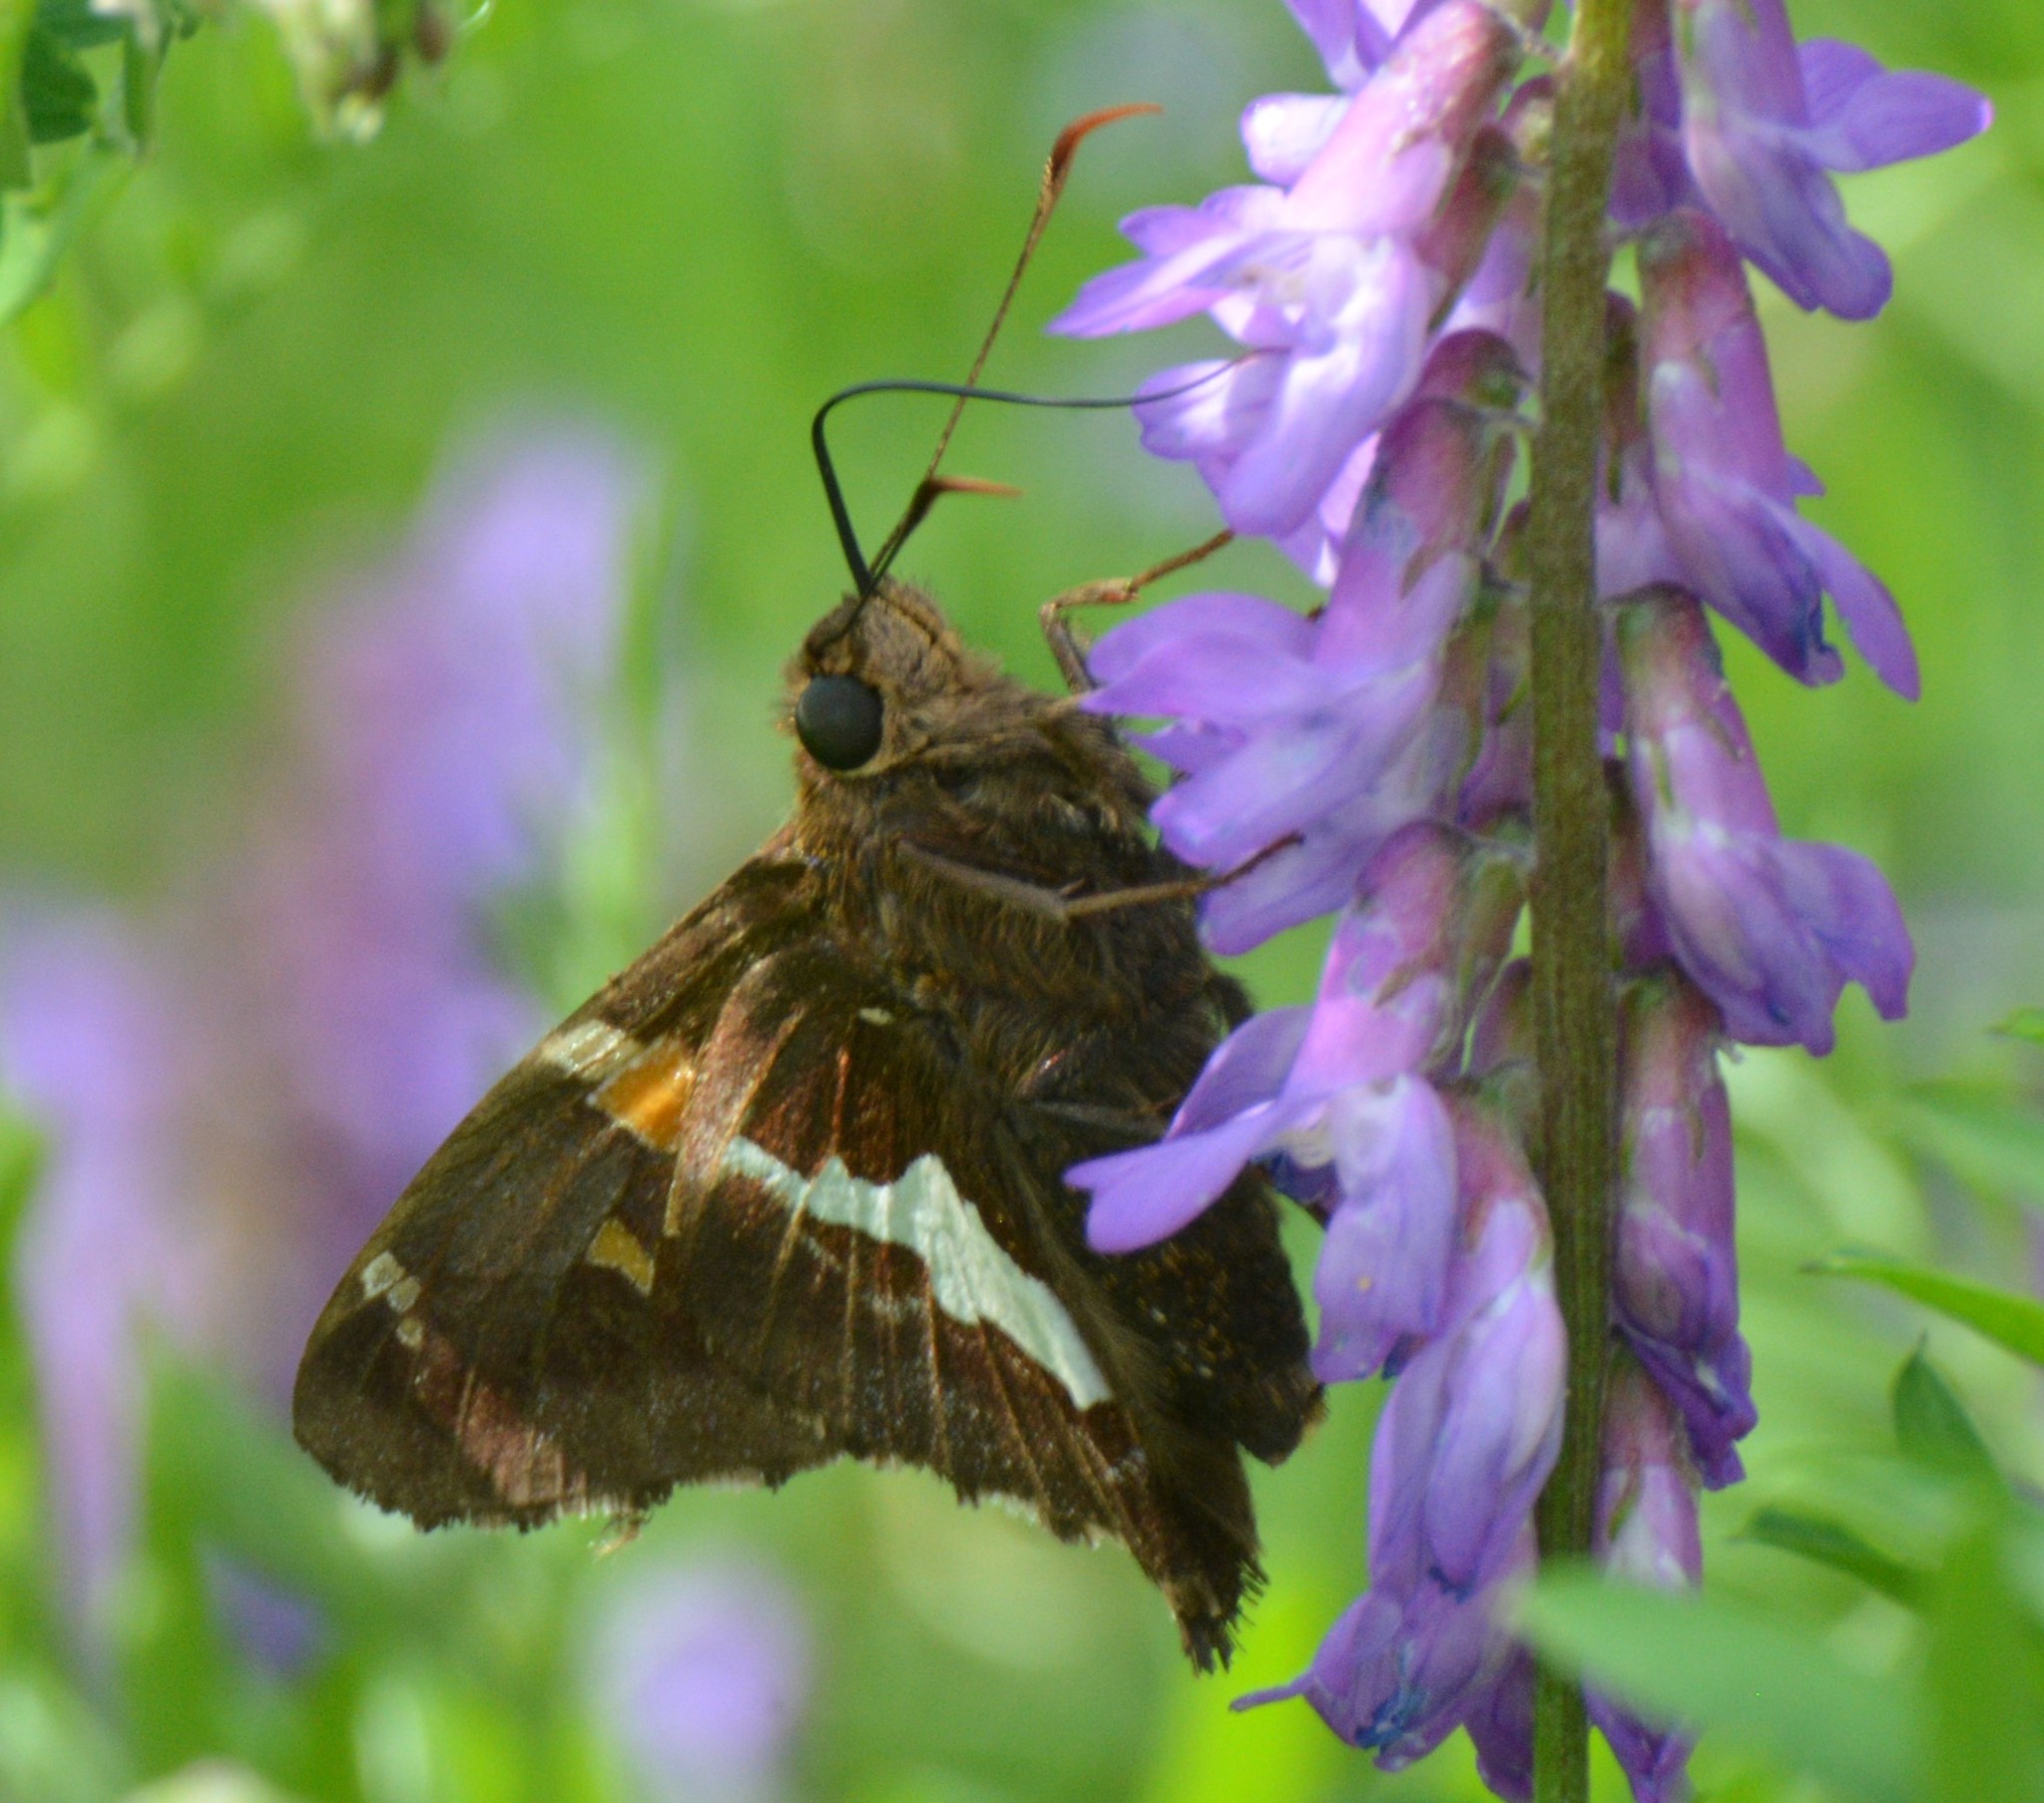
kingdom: Animalia
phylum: Arthropoda
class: Insecta
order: Lepidoptera
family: Hesperiidae
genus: Epargyreus
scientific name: Epargyreus clarus
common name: Silver-spotted skipper
